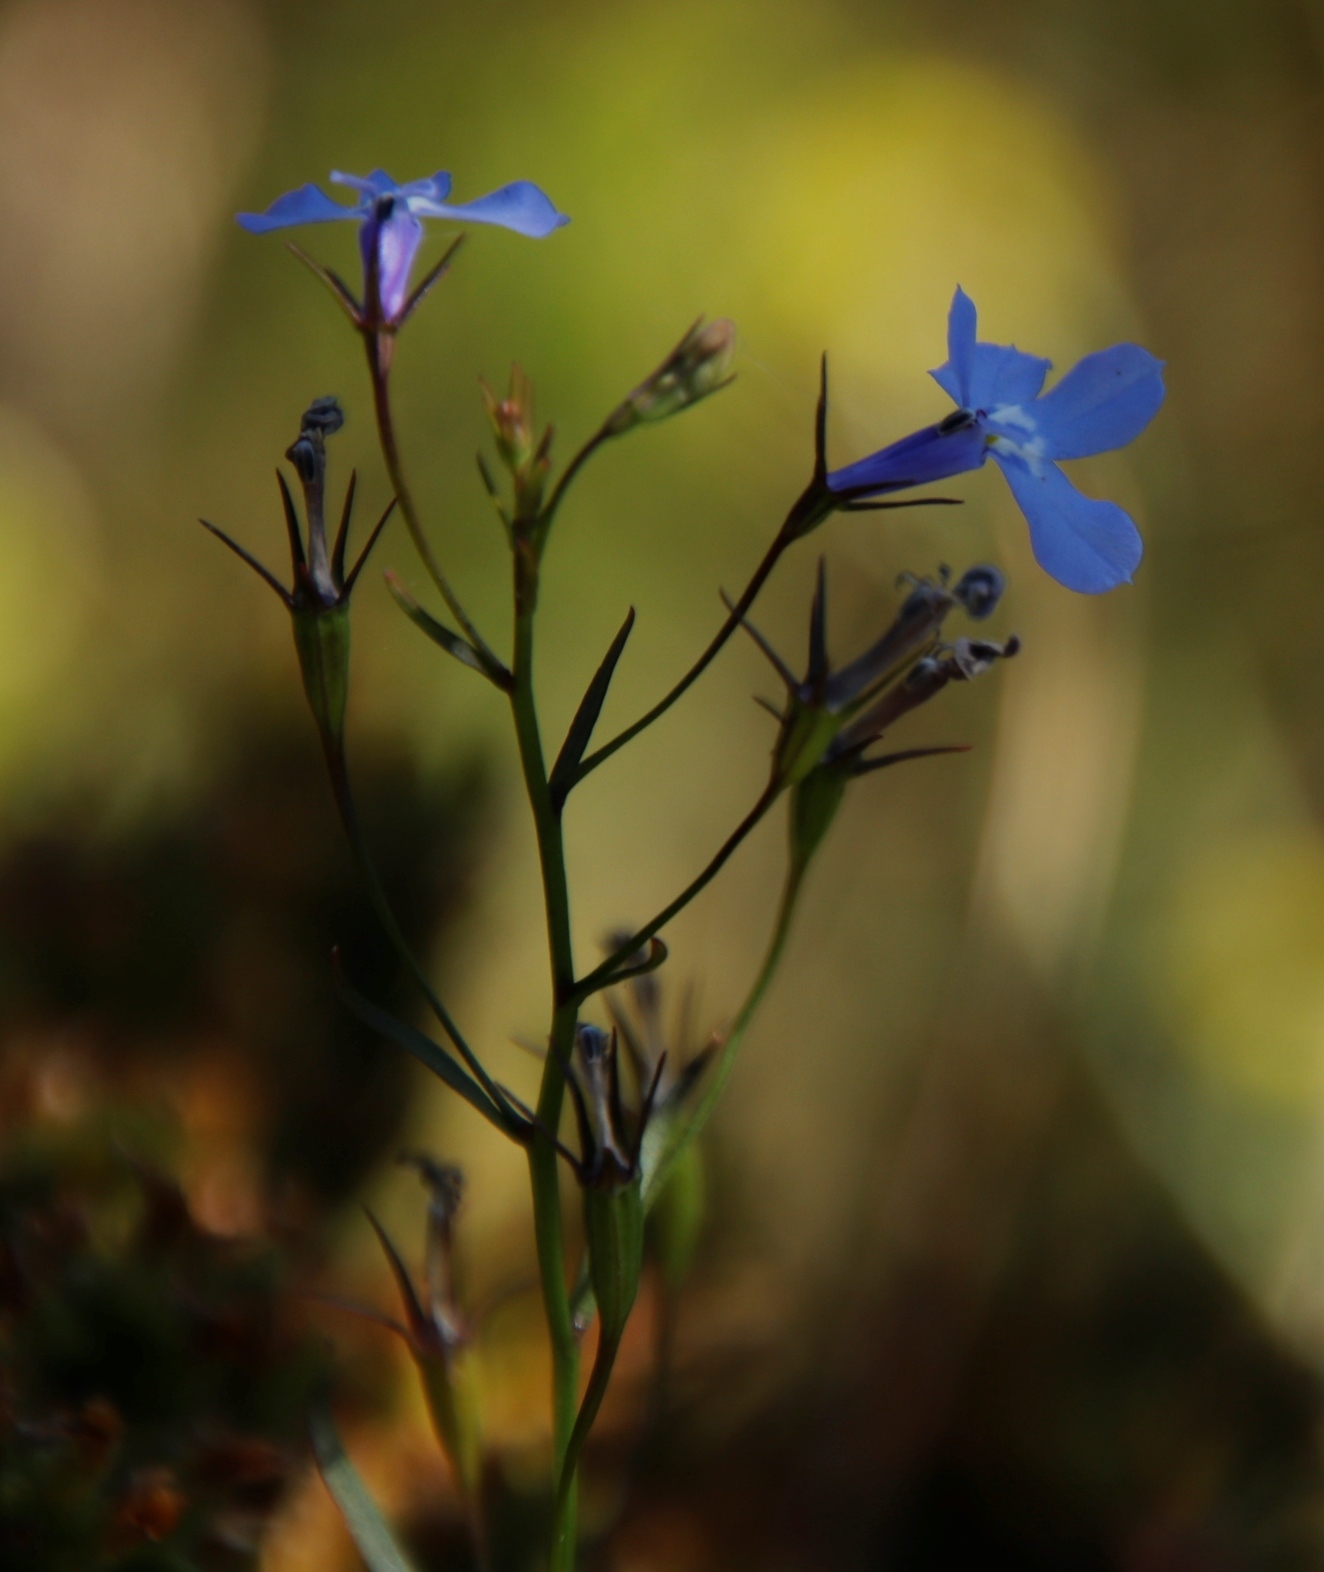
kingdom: Plantae
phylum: Tracheophyta
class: Magnoliopsida
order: Asterales
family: Campanulaceae
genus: Lobelia
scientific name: Lobelia erinus
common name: Edging lobelia
